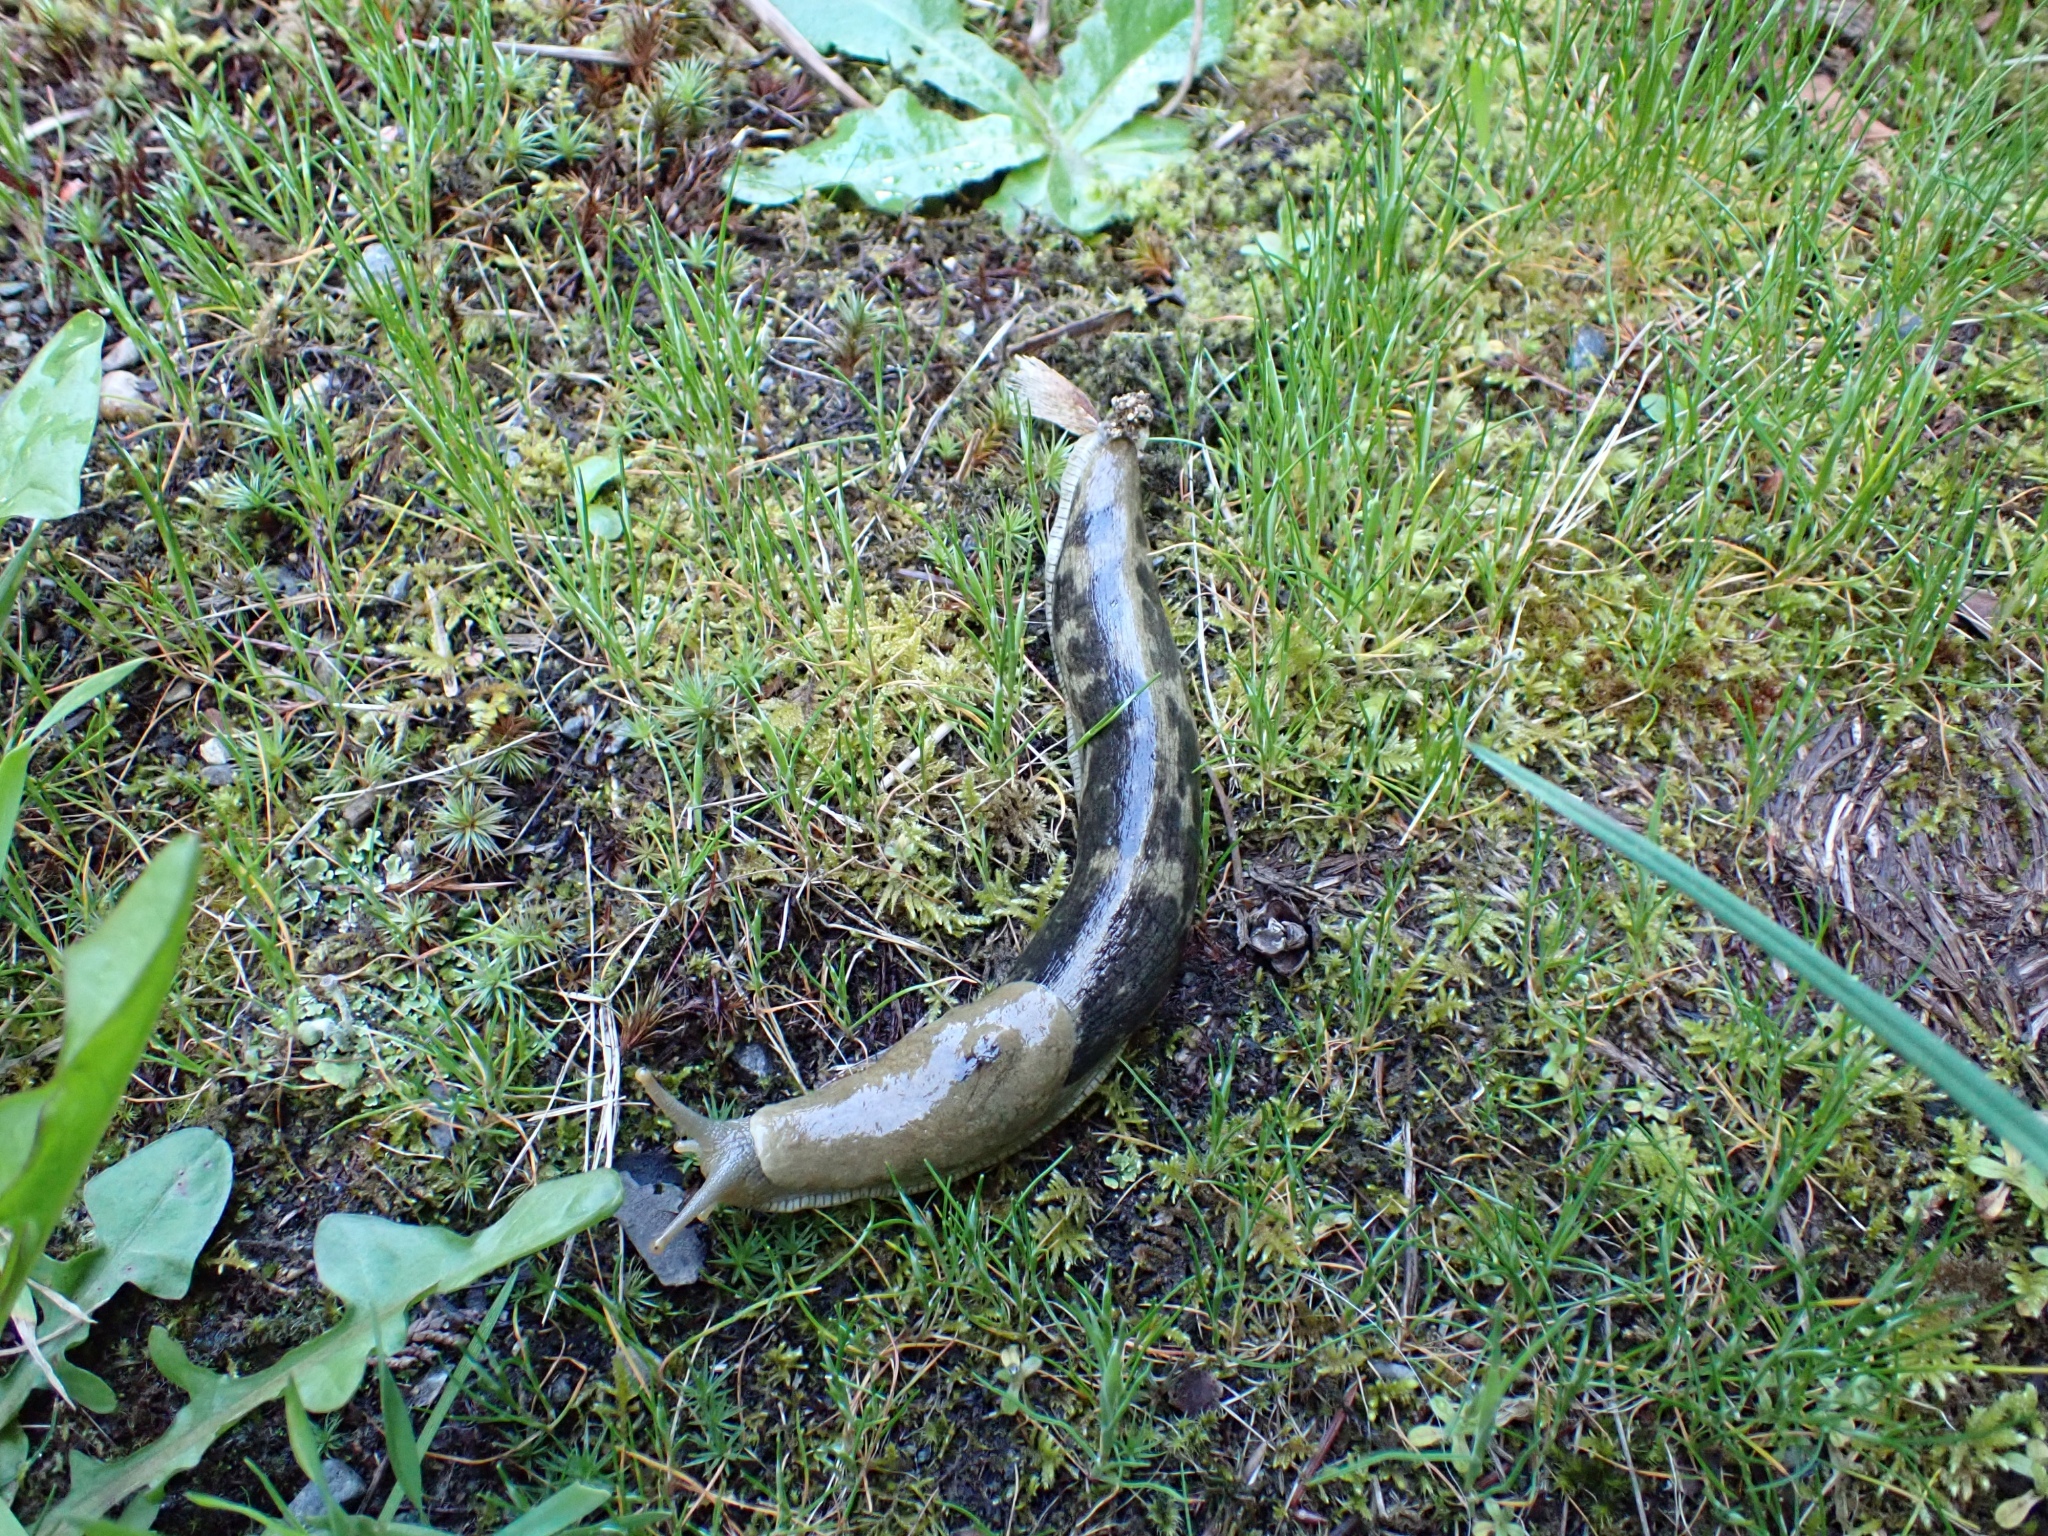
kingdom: Animalia
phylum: Mollusca
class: Gastropoda
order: Stylommatophora
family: Ariolimacidae
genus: Ariolimax
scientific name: Ariolimax columbianus
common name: Pacific banana slug
